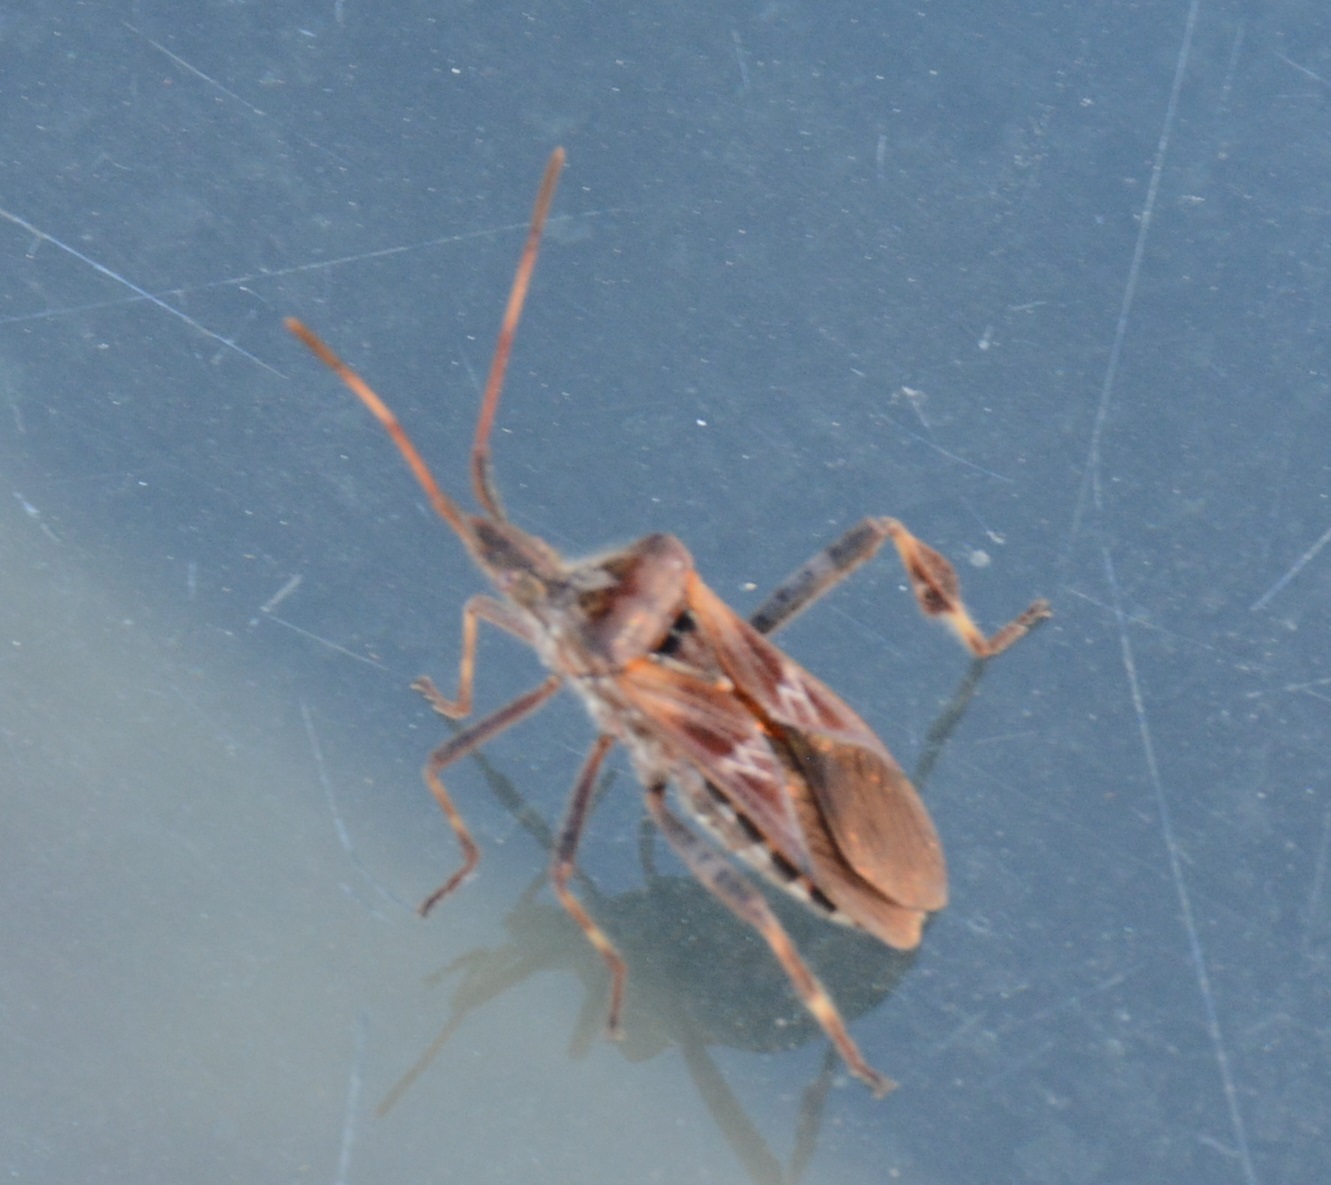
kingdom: Animalia
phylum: Arthropoda
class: Insecta
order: Hemiptera
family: Coreidae
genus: Leptoglossus
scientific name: Leptoglossus occidentalis
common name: Western conifer-seed bug
